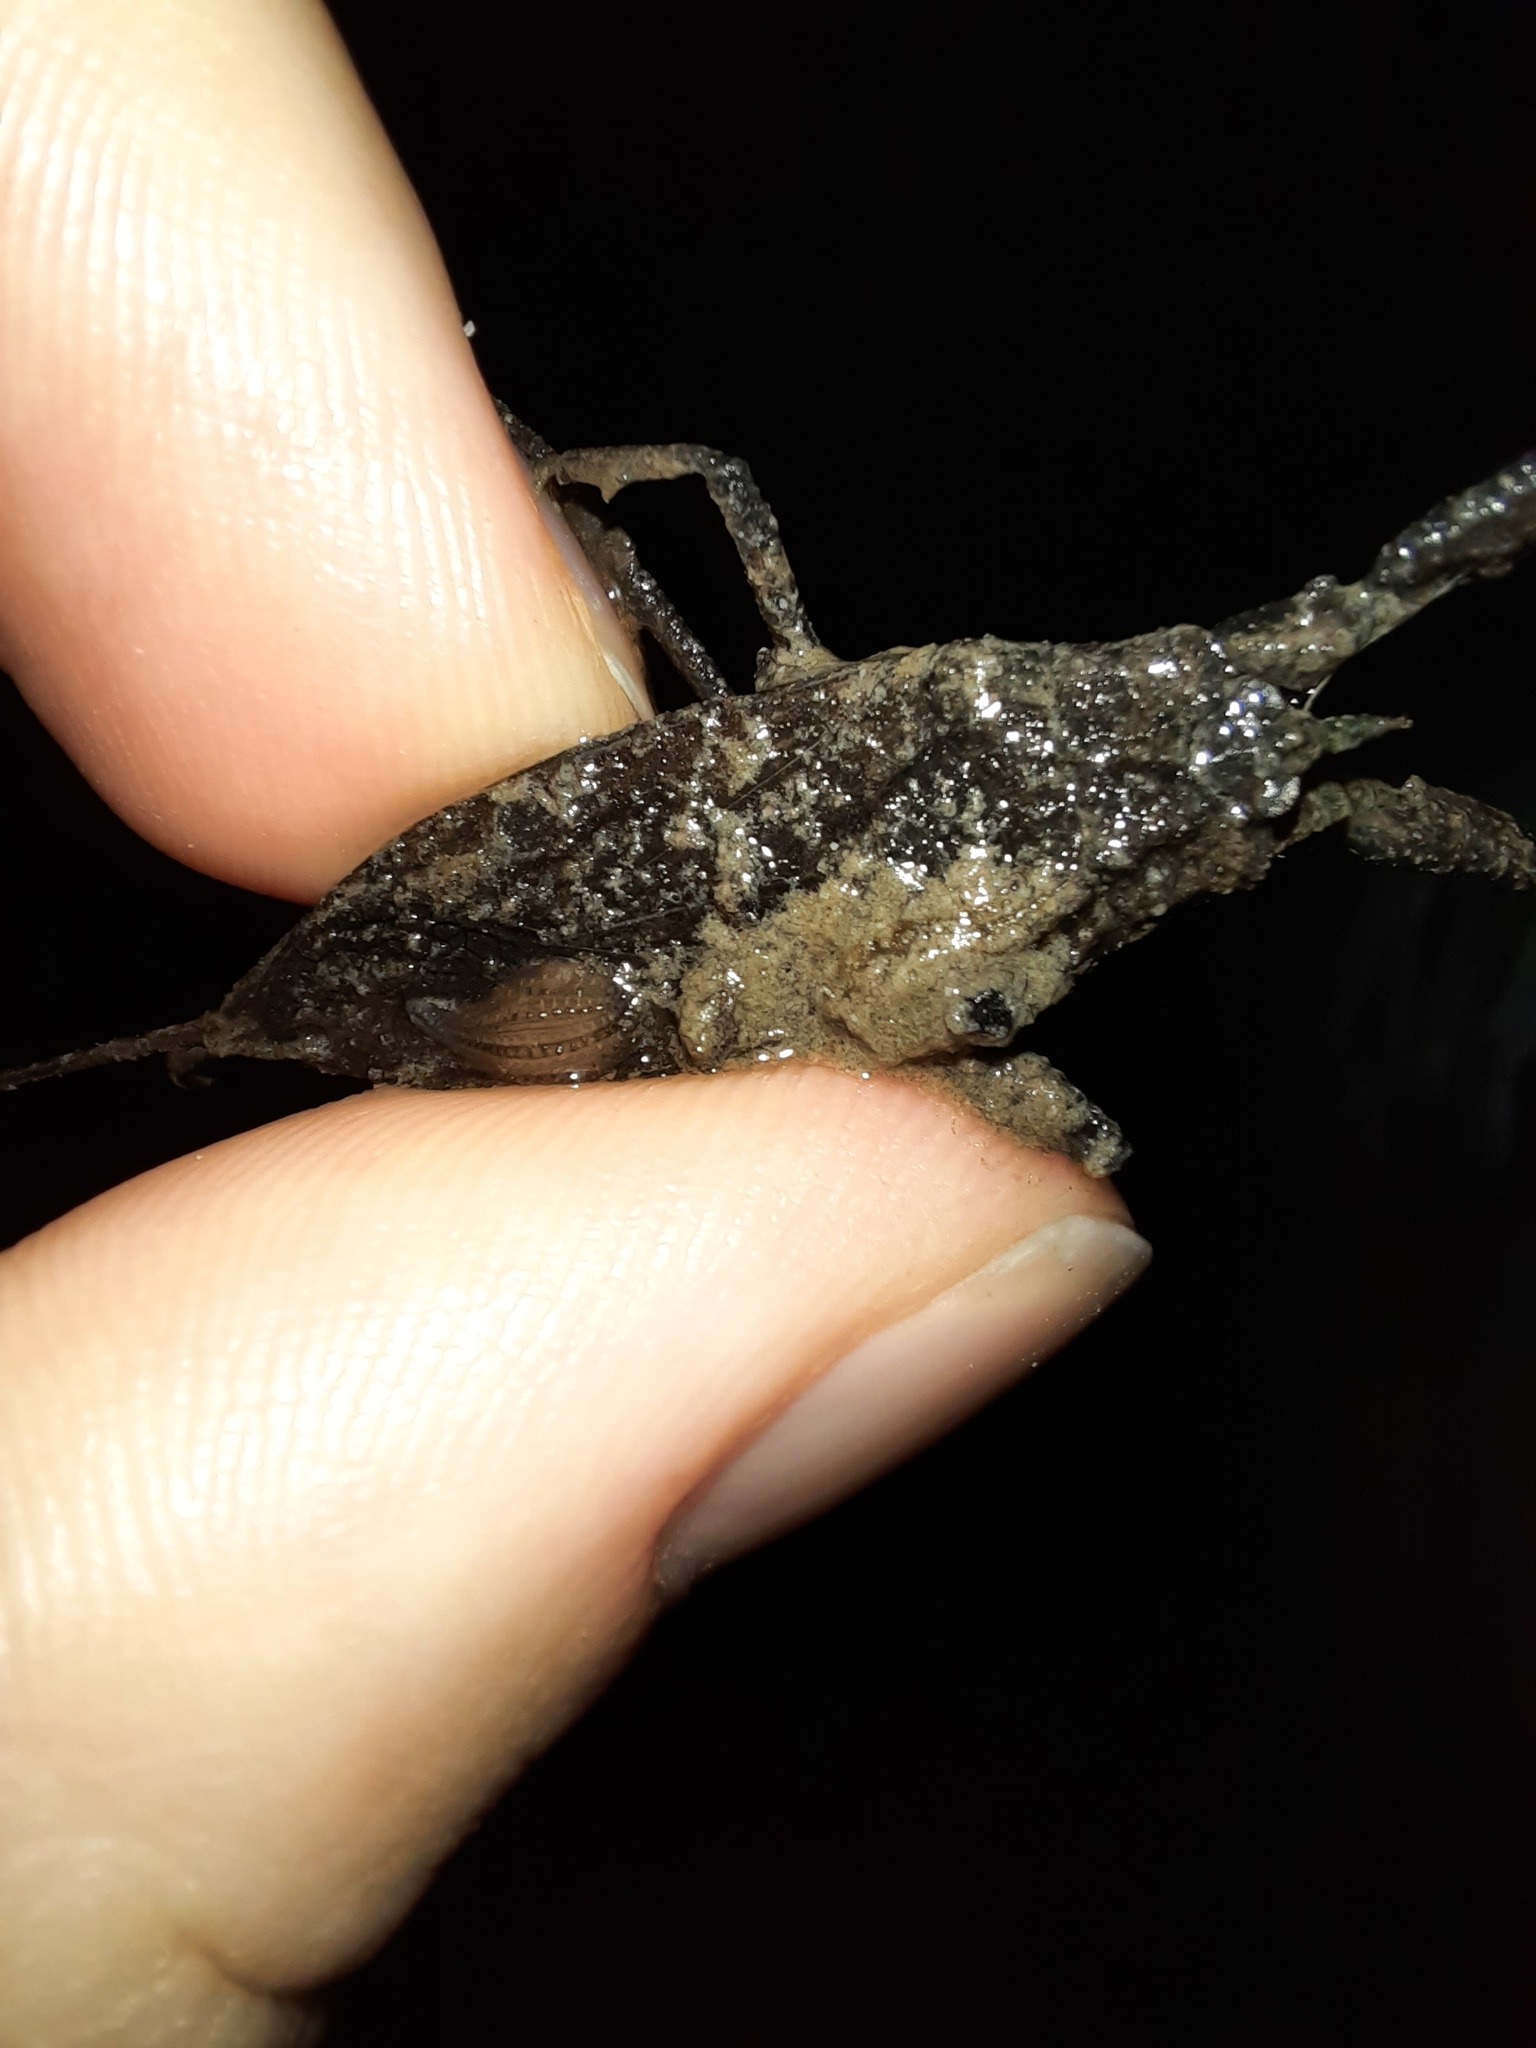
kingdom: Animalia
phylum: Arthropoda
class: Insecta
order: Hemiptera
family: Nepidae
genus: Laccotrephes
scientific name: Laccotrephes tristis
